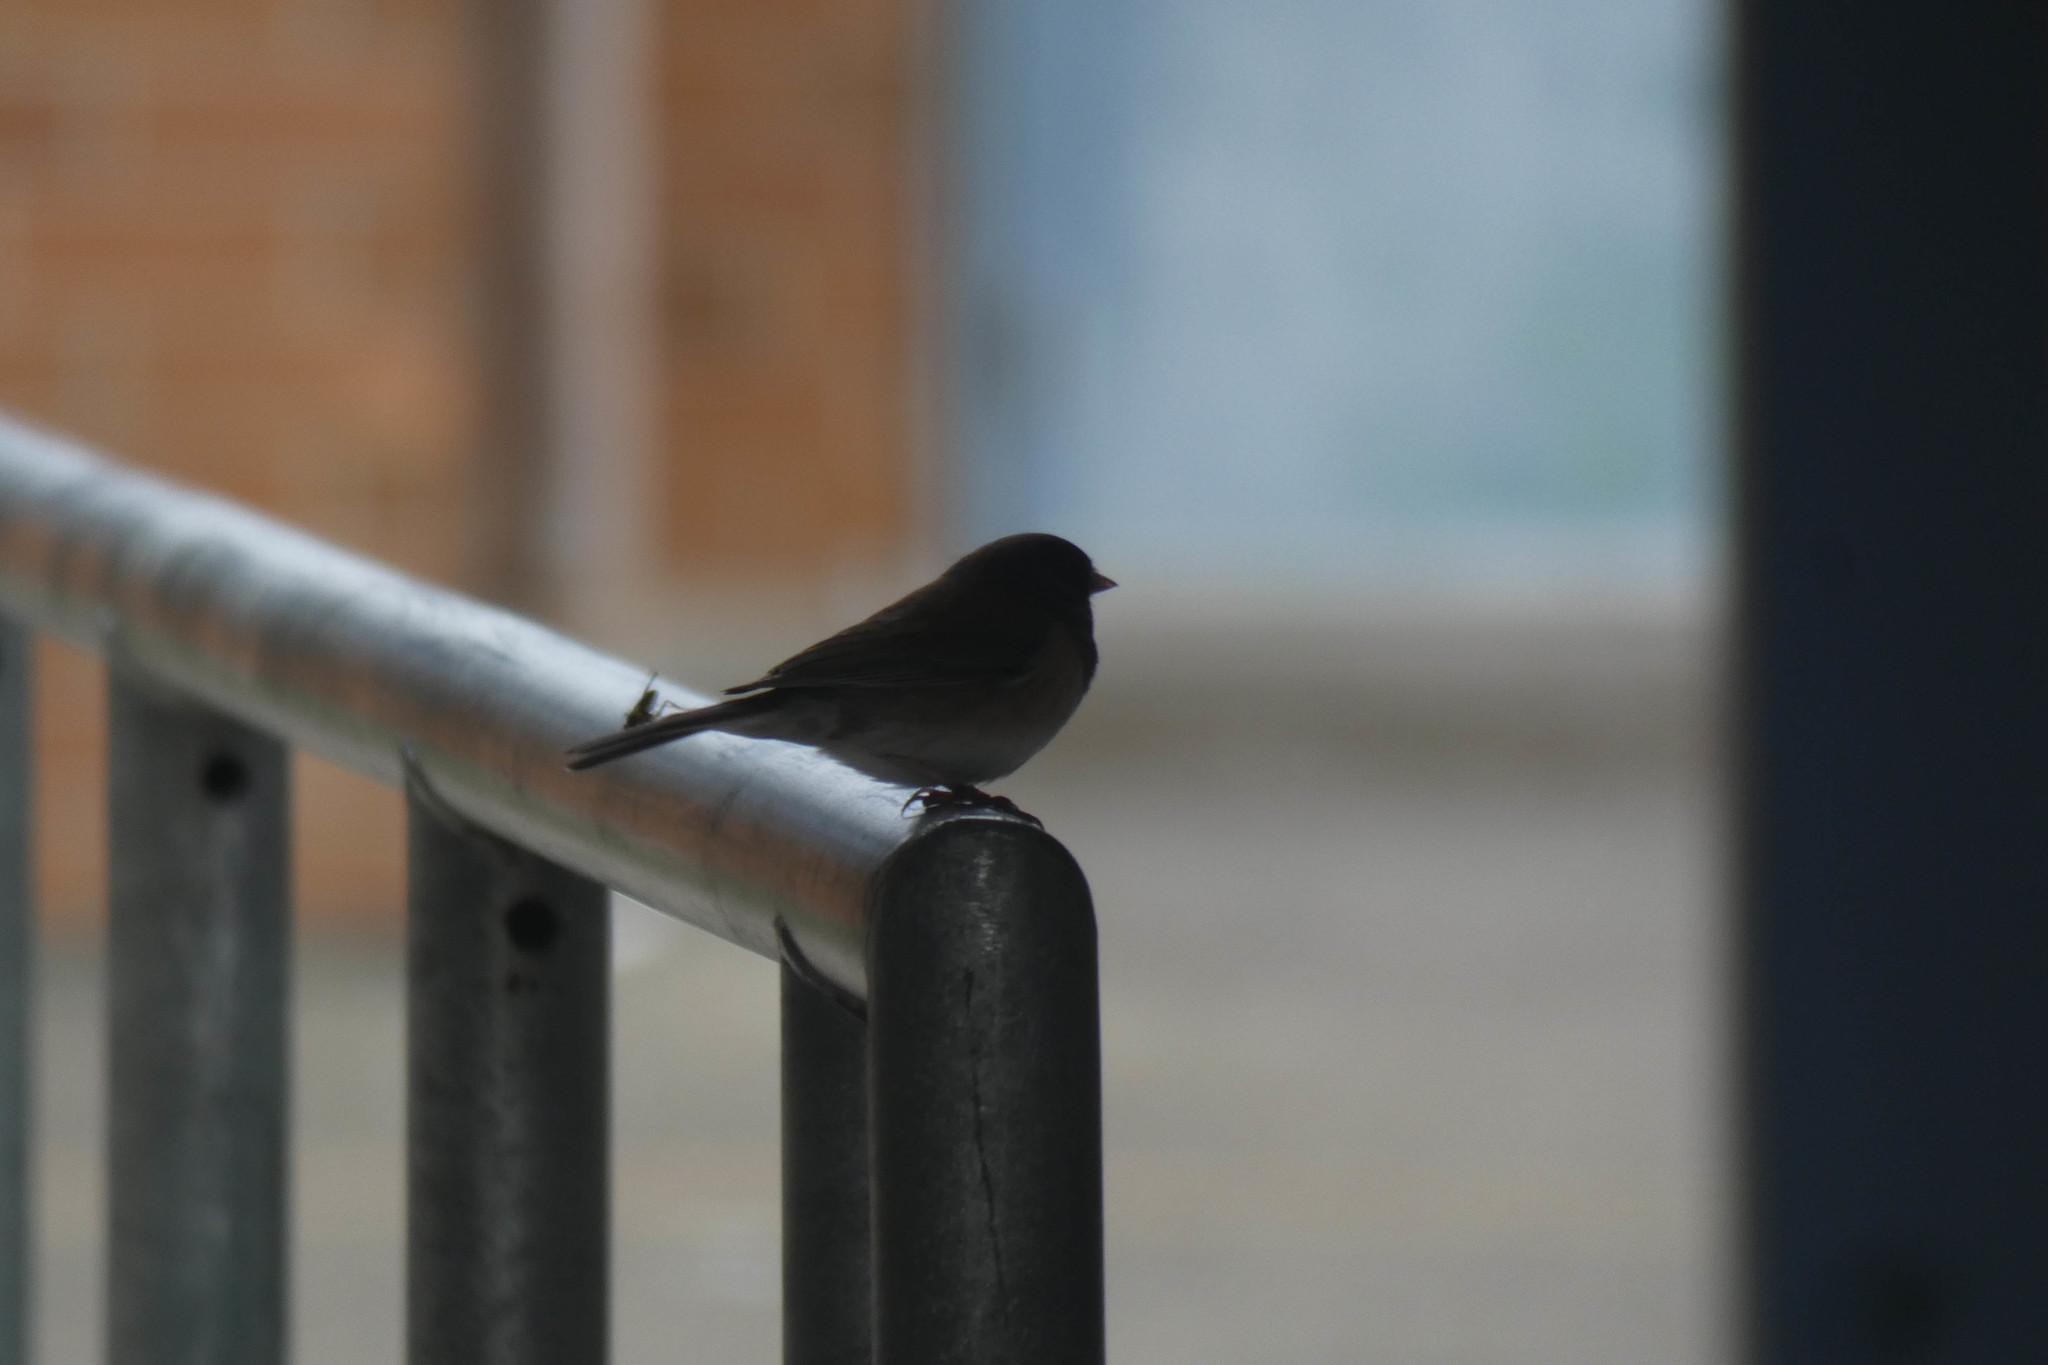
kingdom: Animalia
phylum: Chordata
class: Aves
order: Passeriformes
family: Passerellidae
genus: Junco
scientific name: Junco hyemalis
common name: Dark-eyed junco
